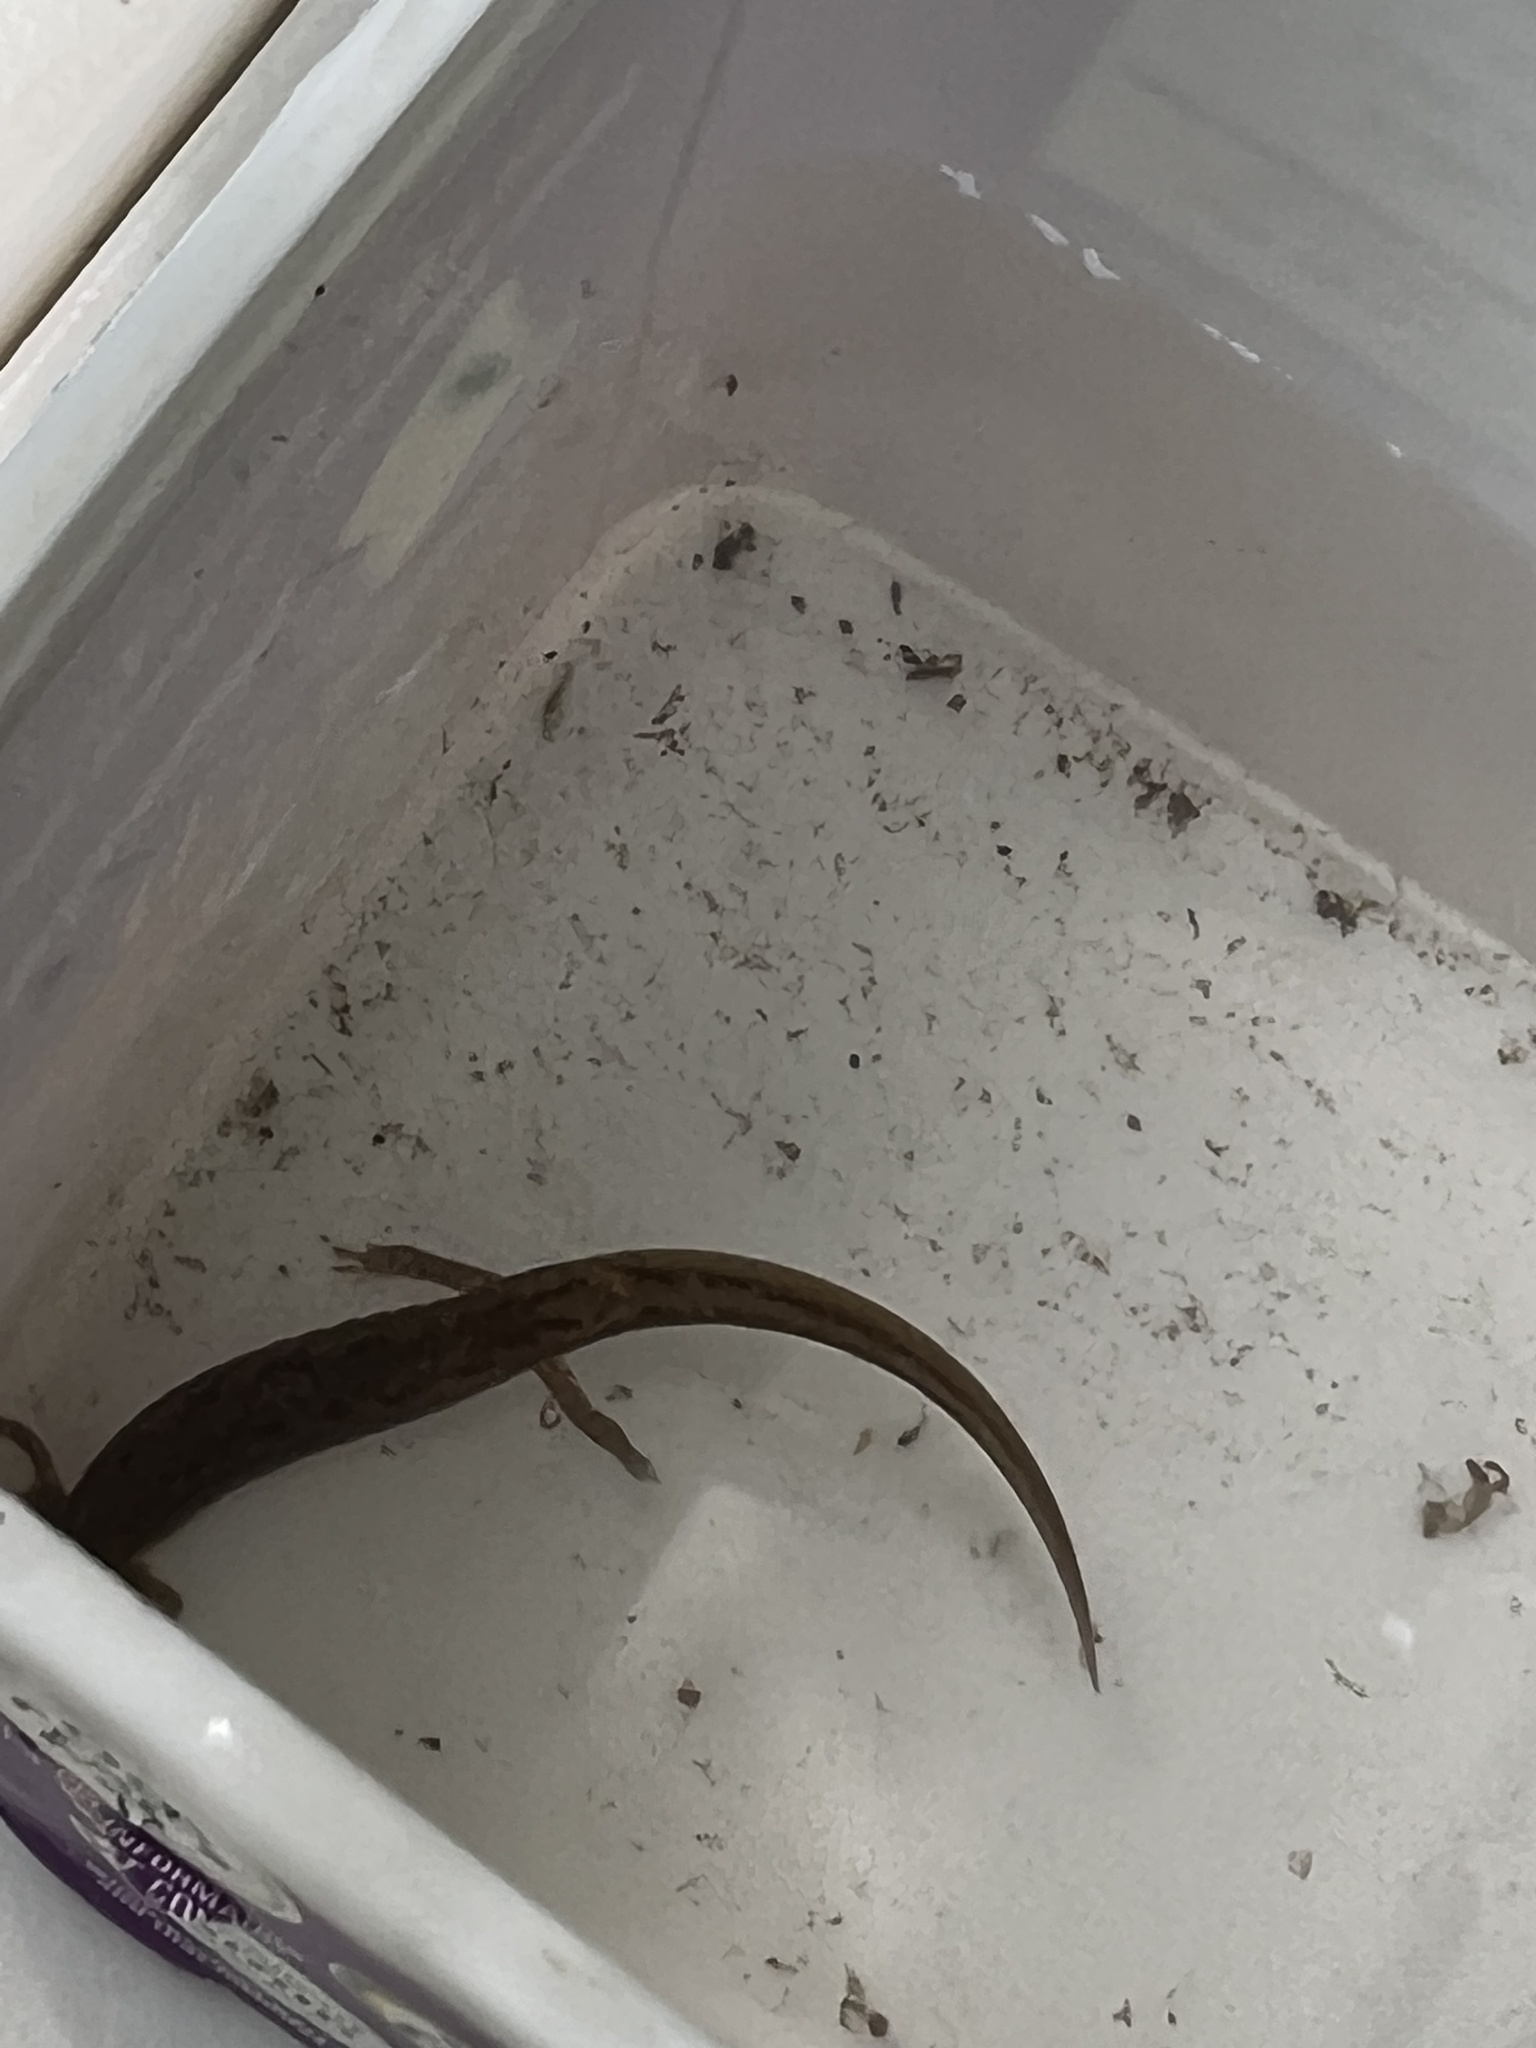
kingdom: Animalia
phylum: Chordata
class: Amphibia
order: Caudata
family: Plethodontidae
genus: Eurycea
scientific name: Eurycea bislineata
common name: Northern two-lined salamander
